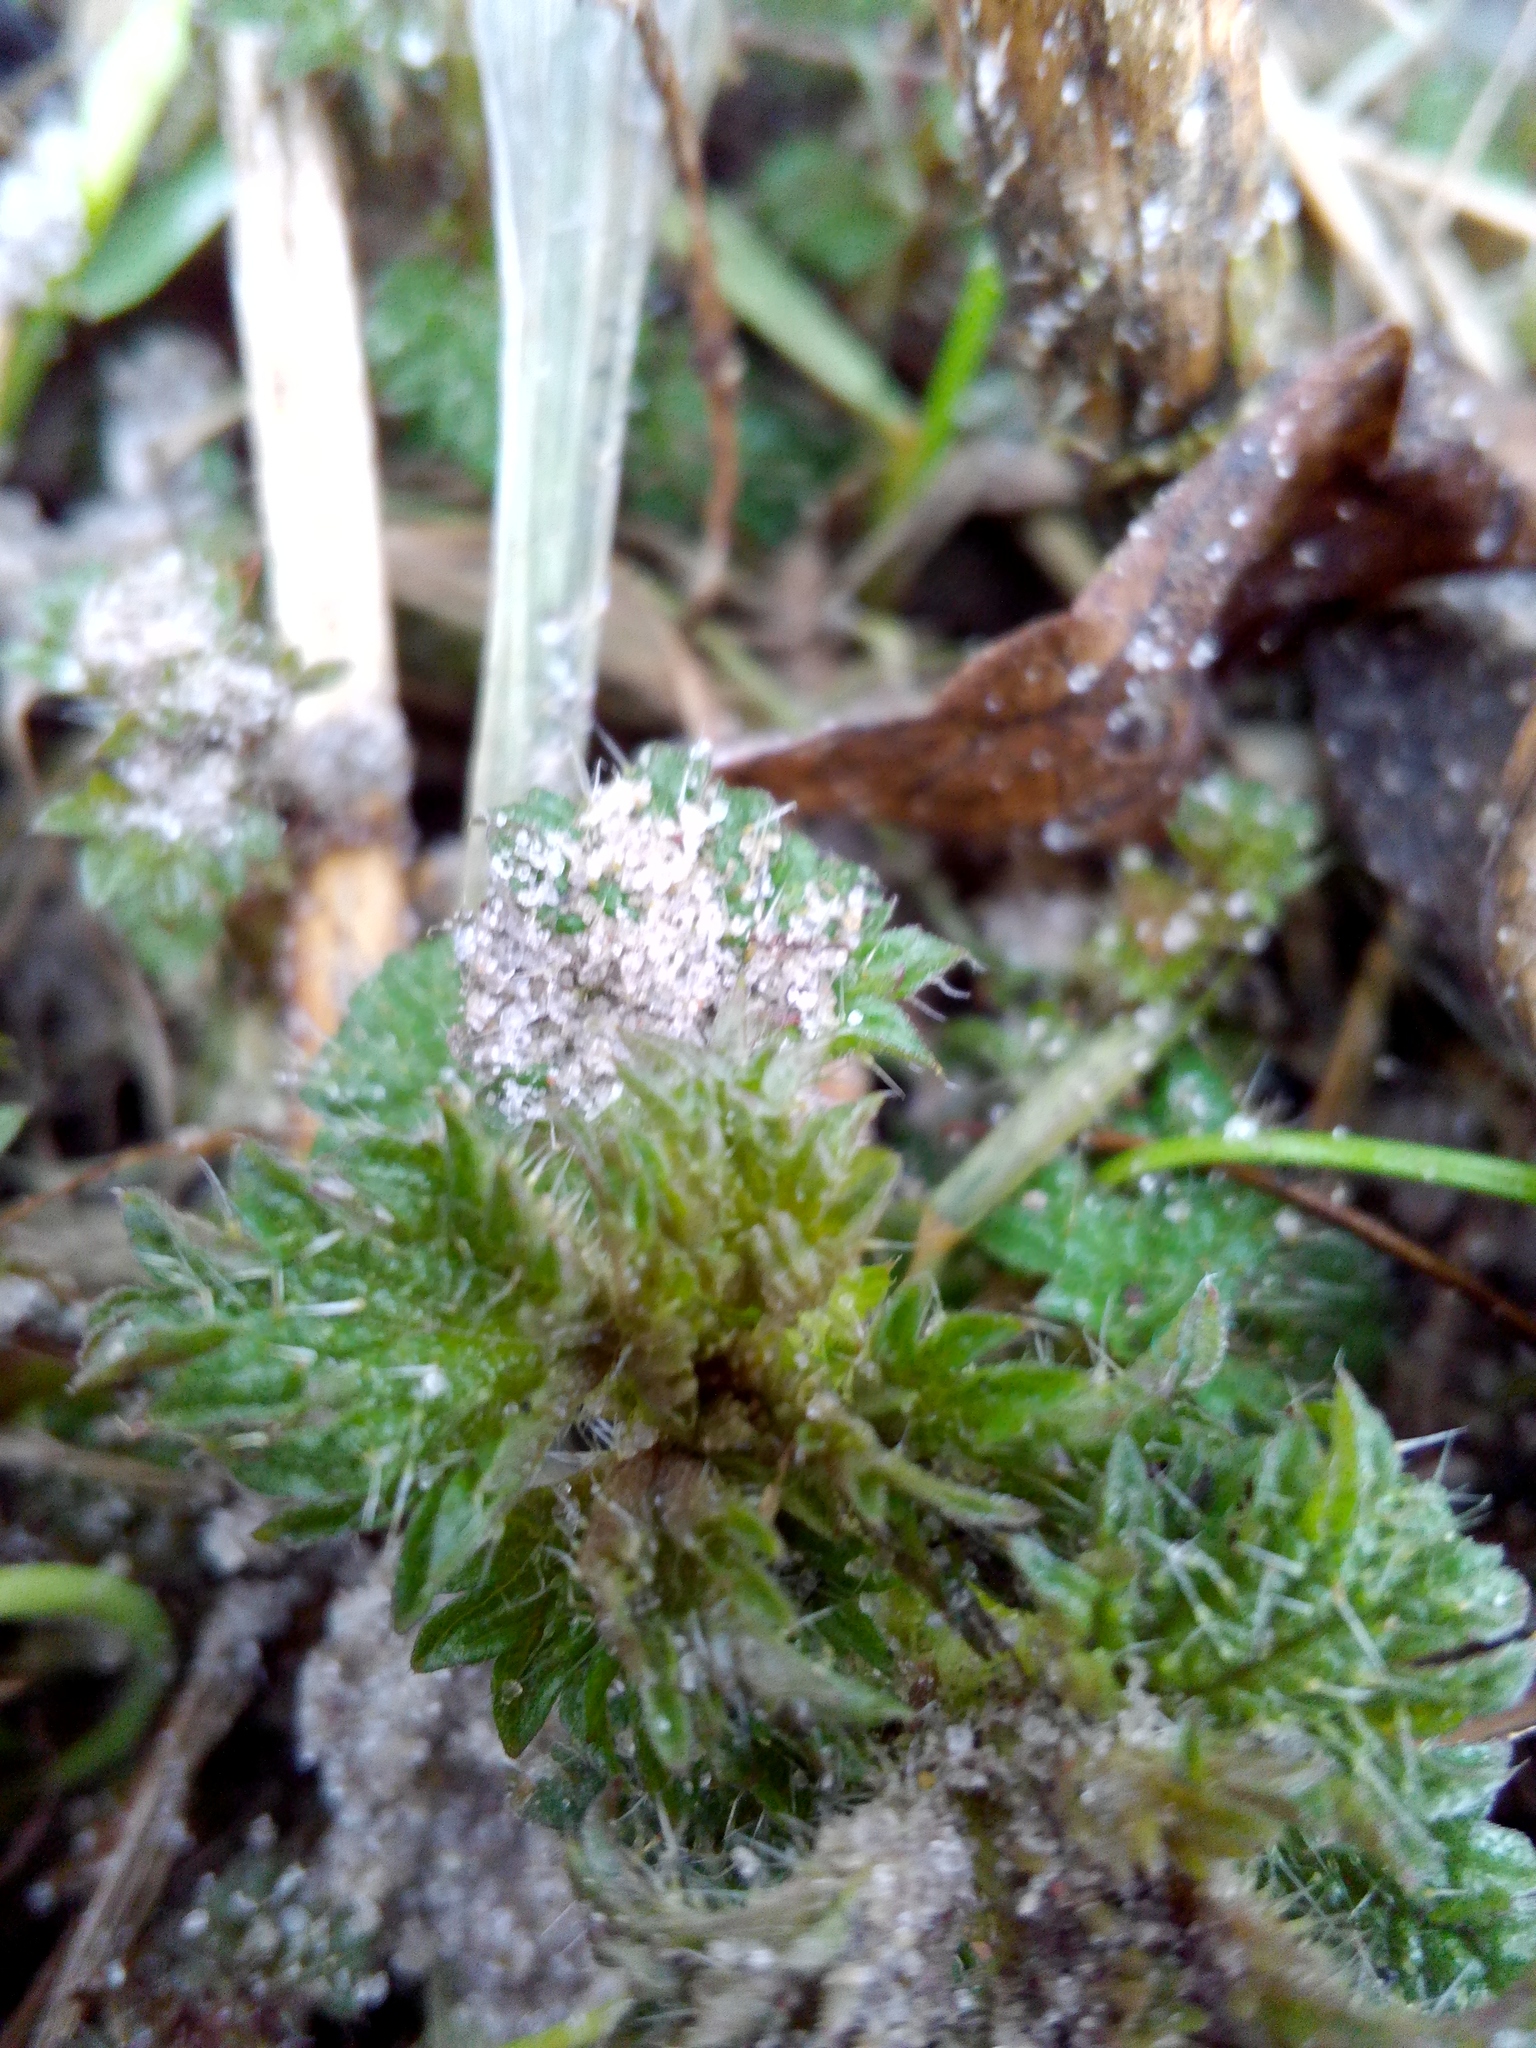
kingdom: Plantae
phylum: Tracheophyta
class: Magnoliopsida
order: Rosales
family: Urticaceae
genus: Urtica
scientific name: Urtica dioica
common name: Common nettle
